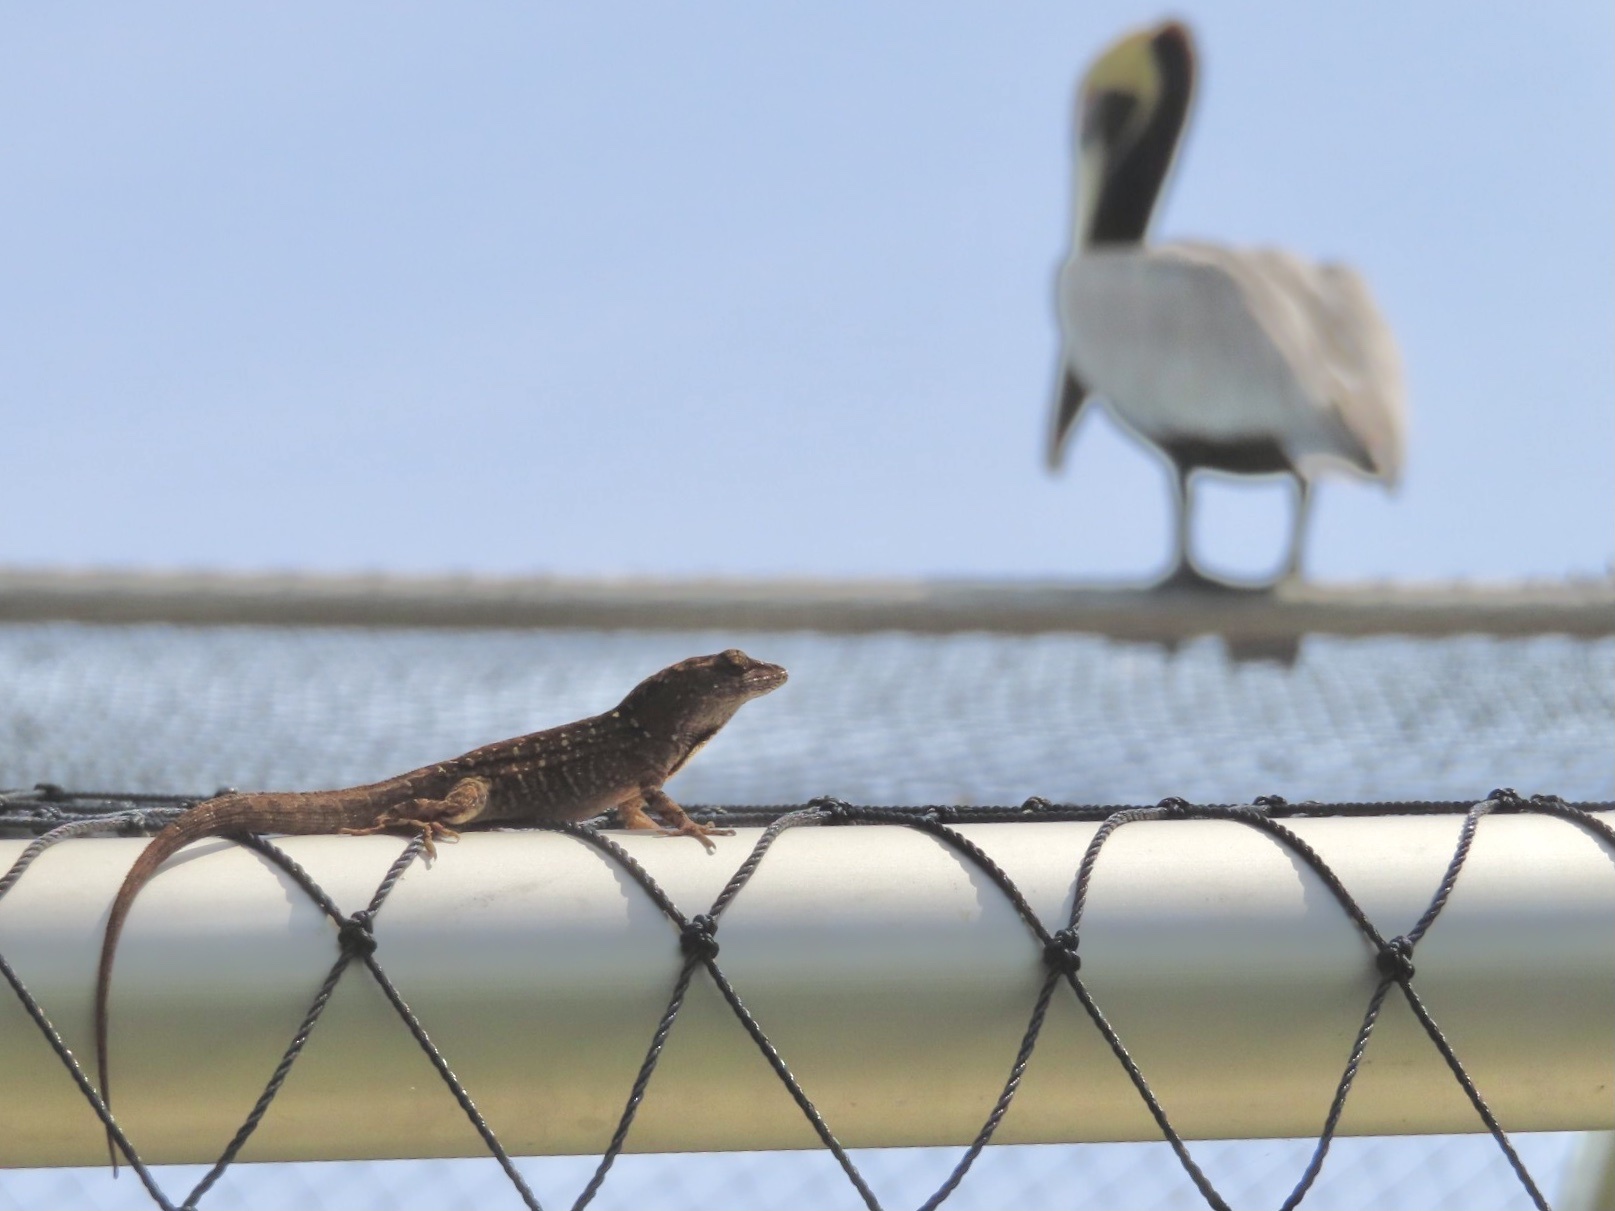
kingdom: Animalia
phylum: Chordata
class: Squamata
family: Dactyloidae
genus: Anolis
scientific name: Anolis sagrei
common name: Brown anole
